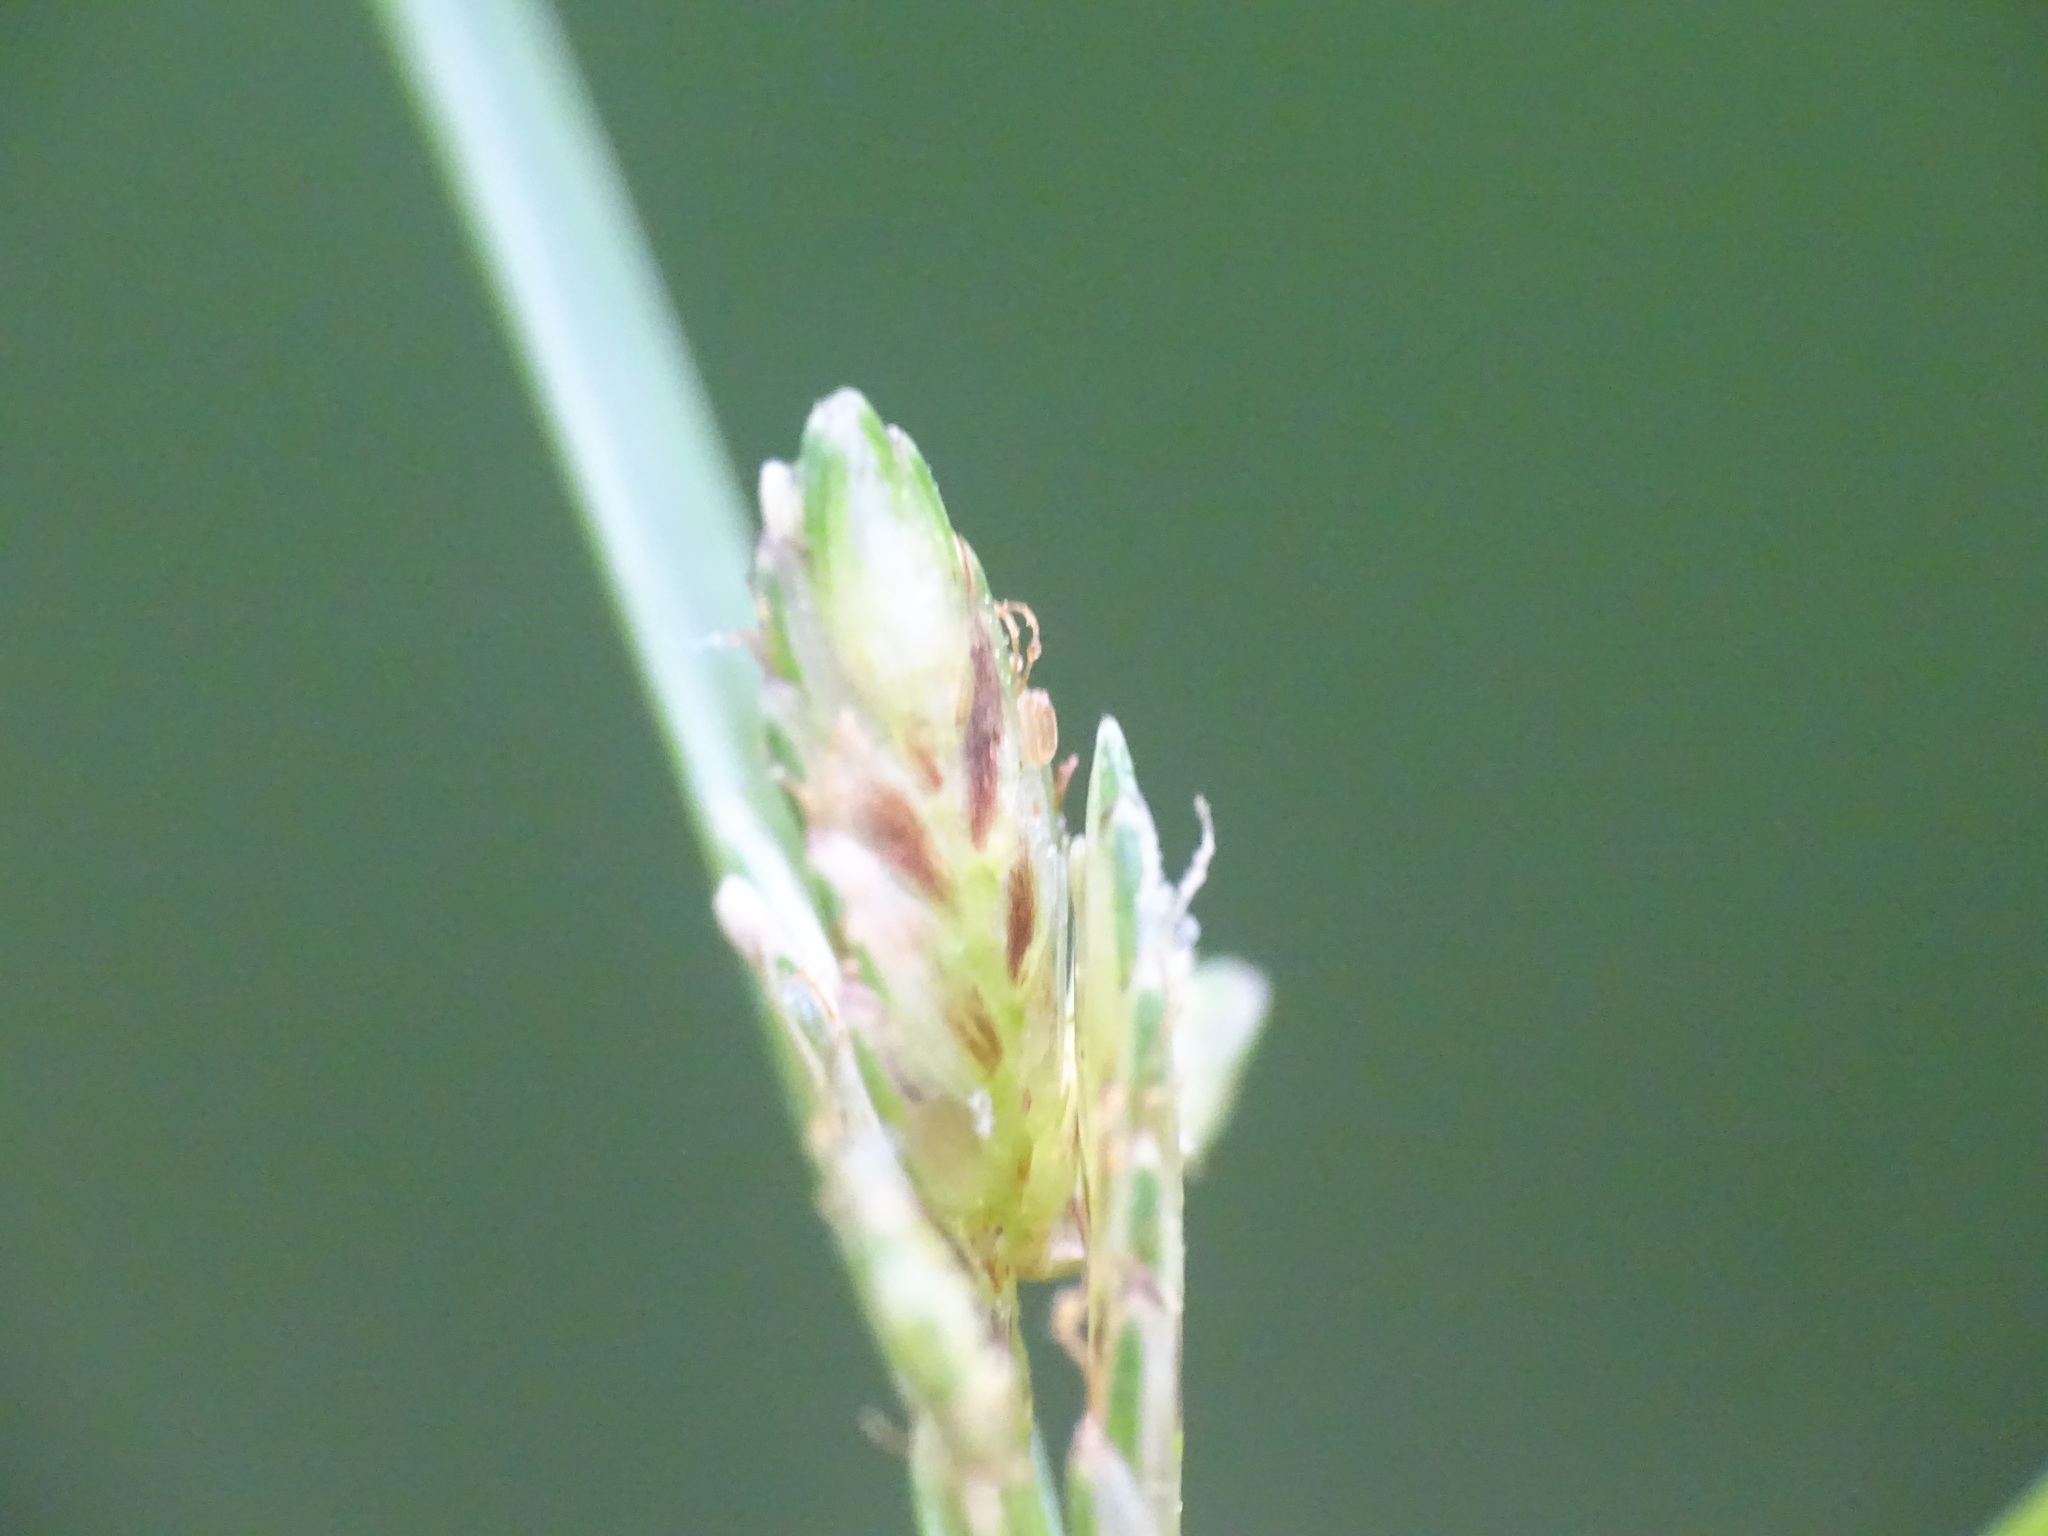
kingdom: Plantae
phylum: Tracheophyta
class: Liliopsida
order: Poales
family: Cyperaceae
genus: Cyperus
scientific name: Cyperus bipartitus
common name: Brook flatsedge
